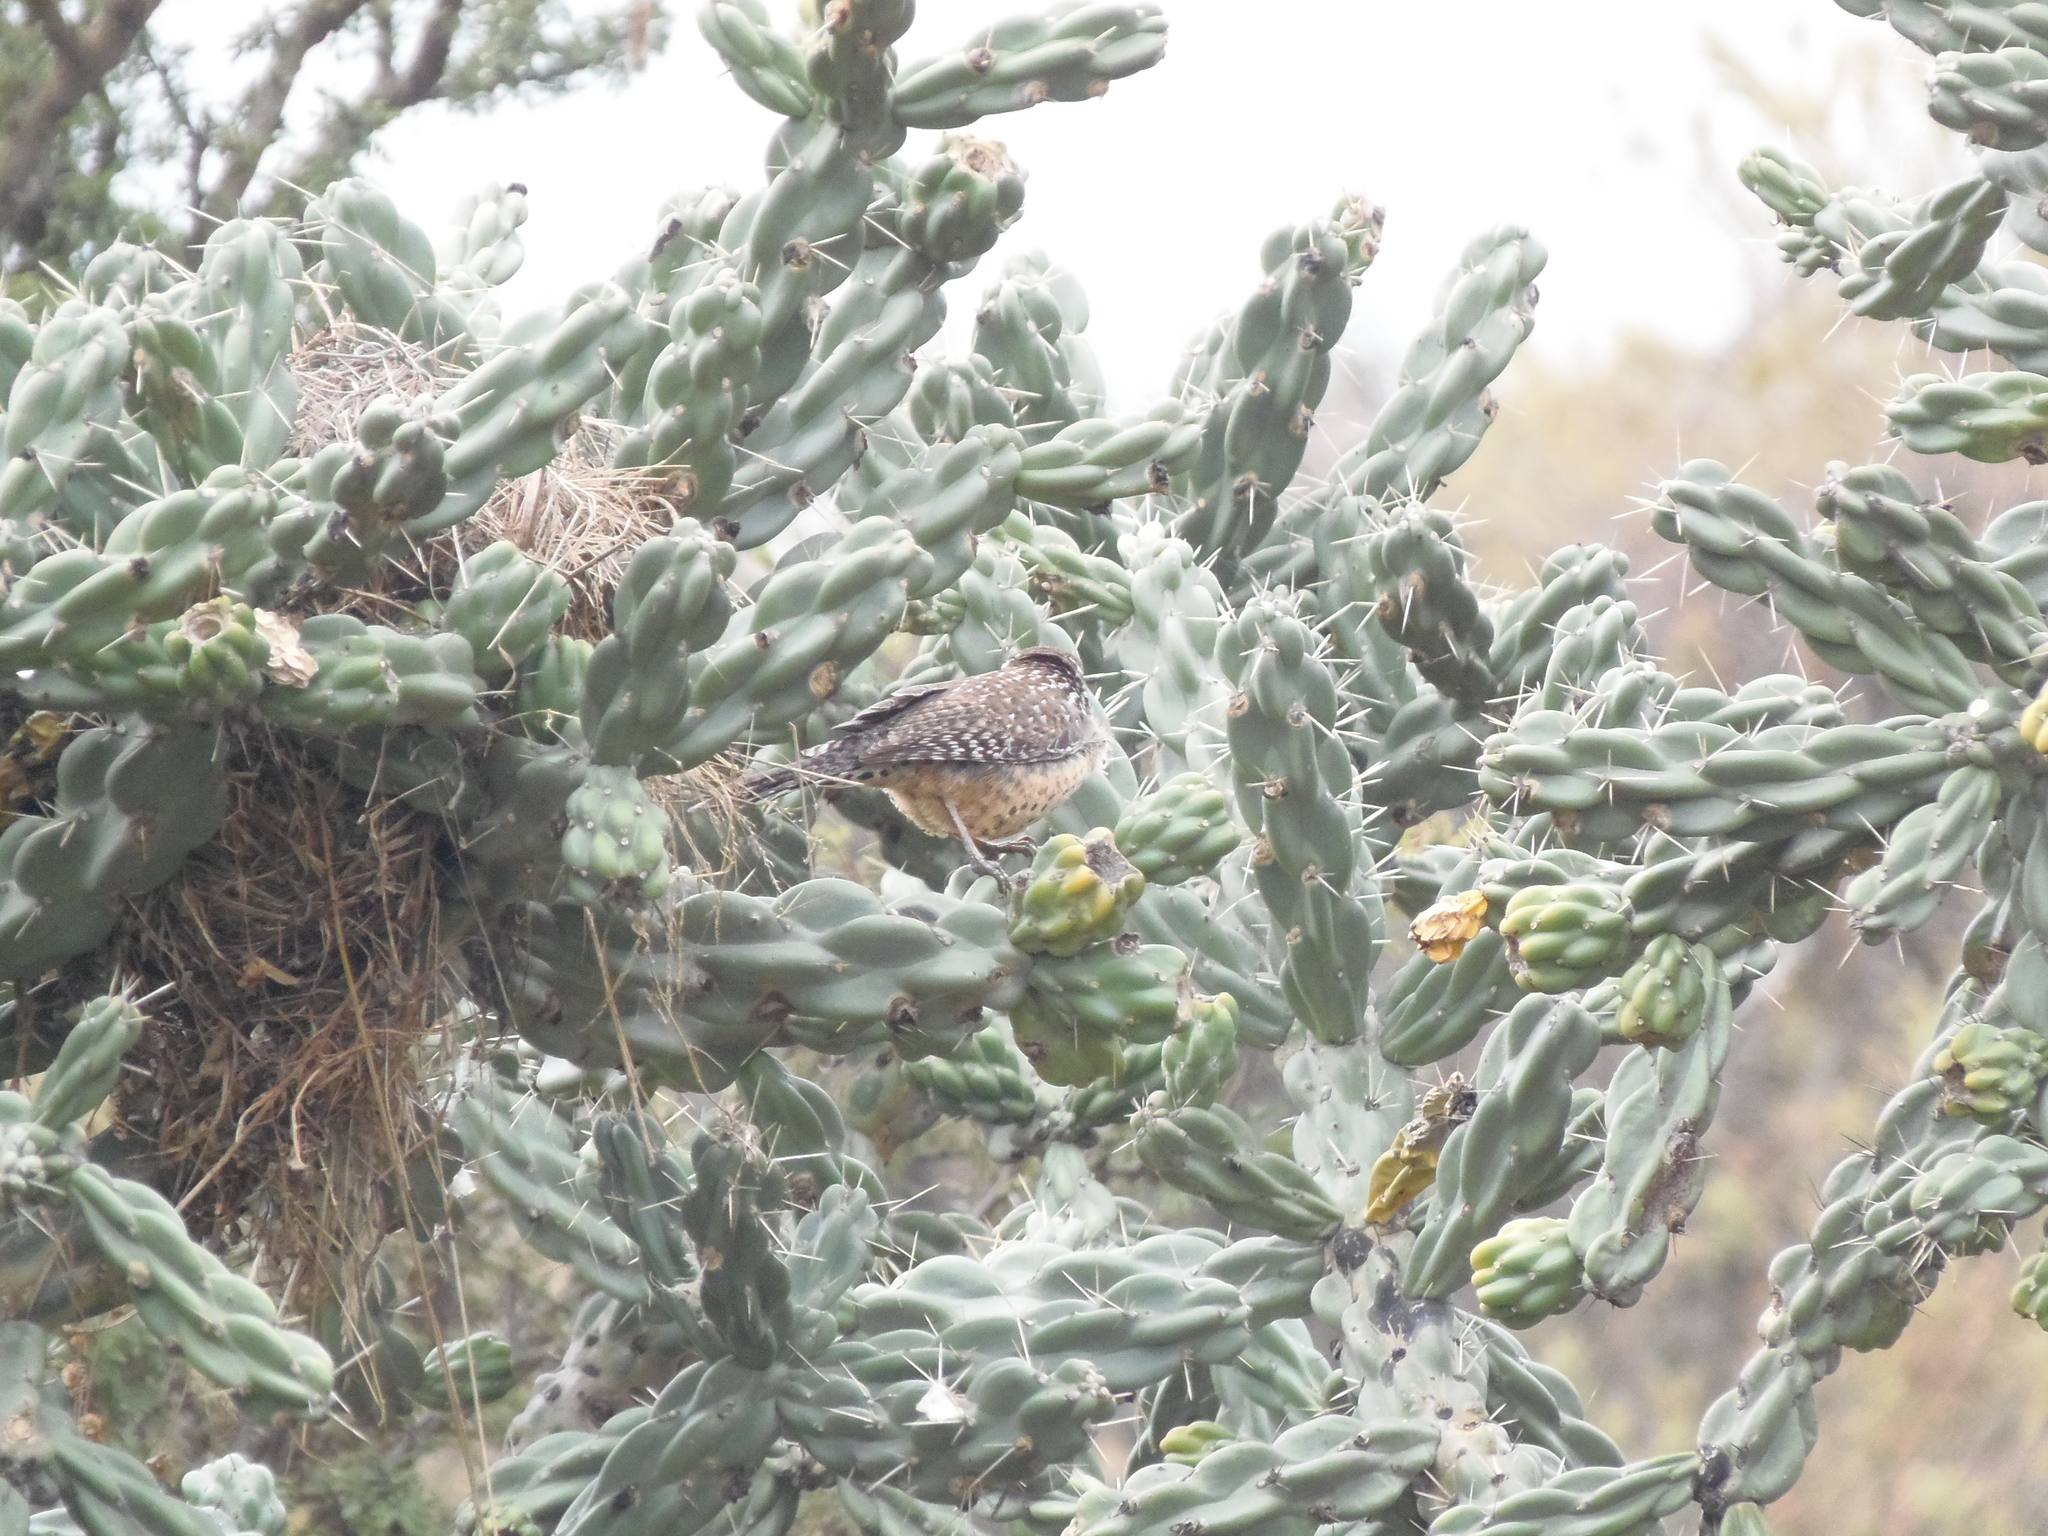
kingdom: Animalia
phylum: Chordata
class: Aves
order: Passeriformes
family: Troglodytidae
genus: Campylorhynchus
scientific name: Campylorhynchus brunneicapillus
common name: Cactus wren
